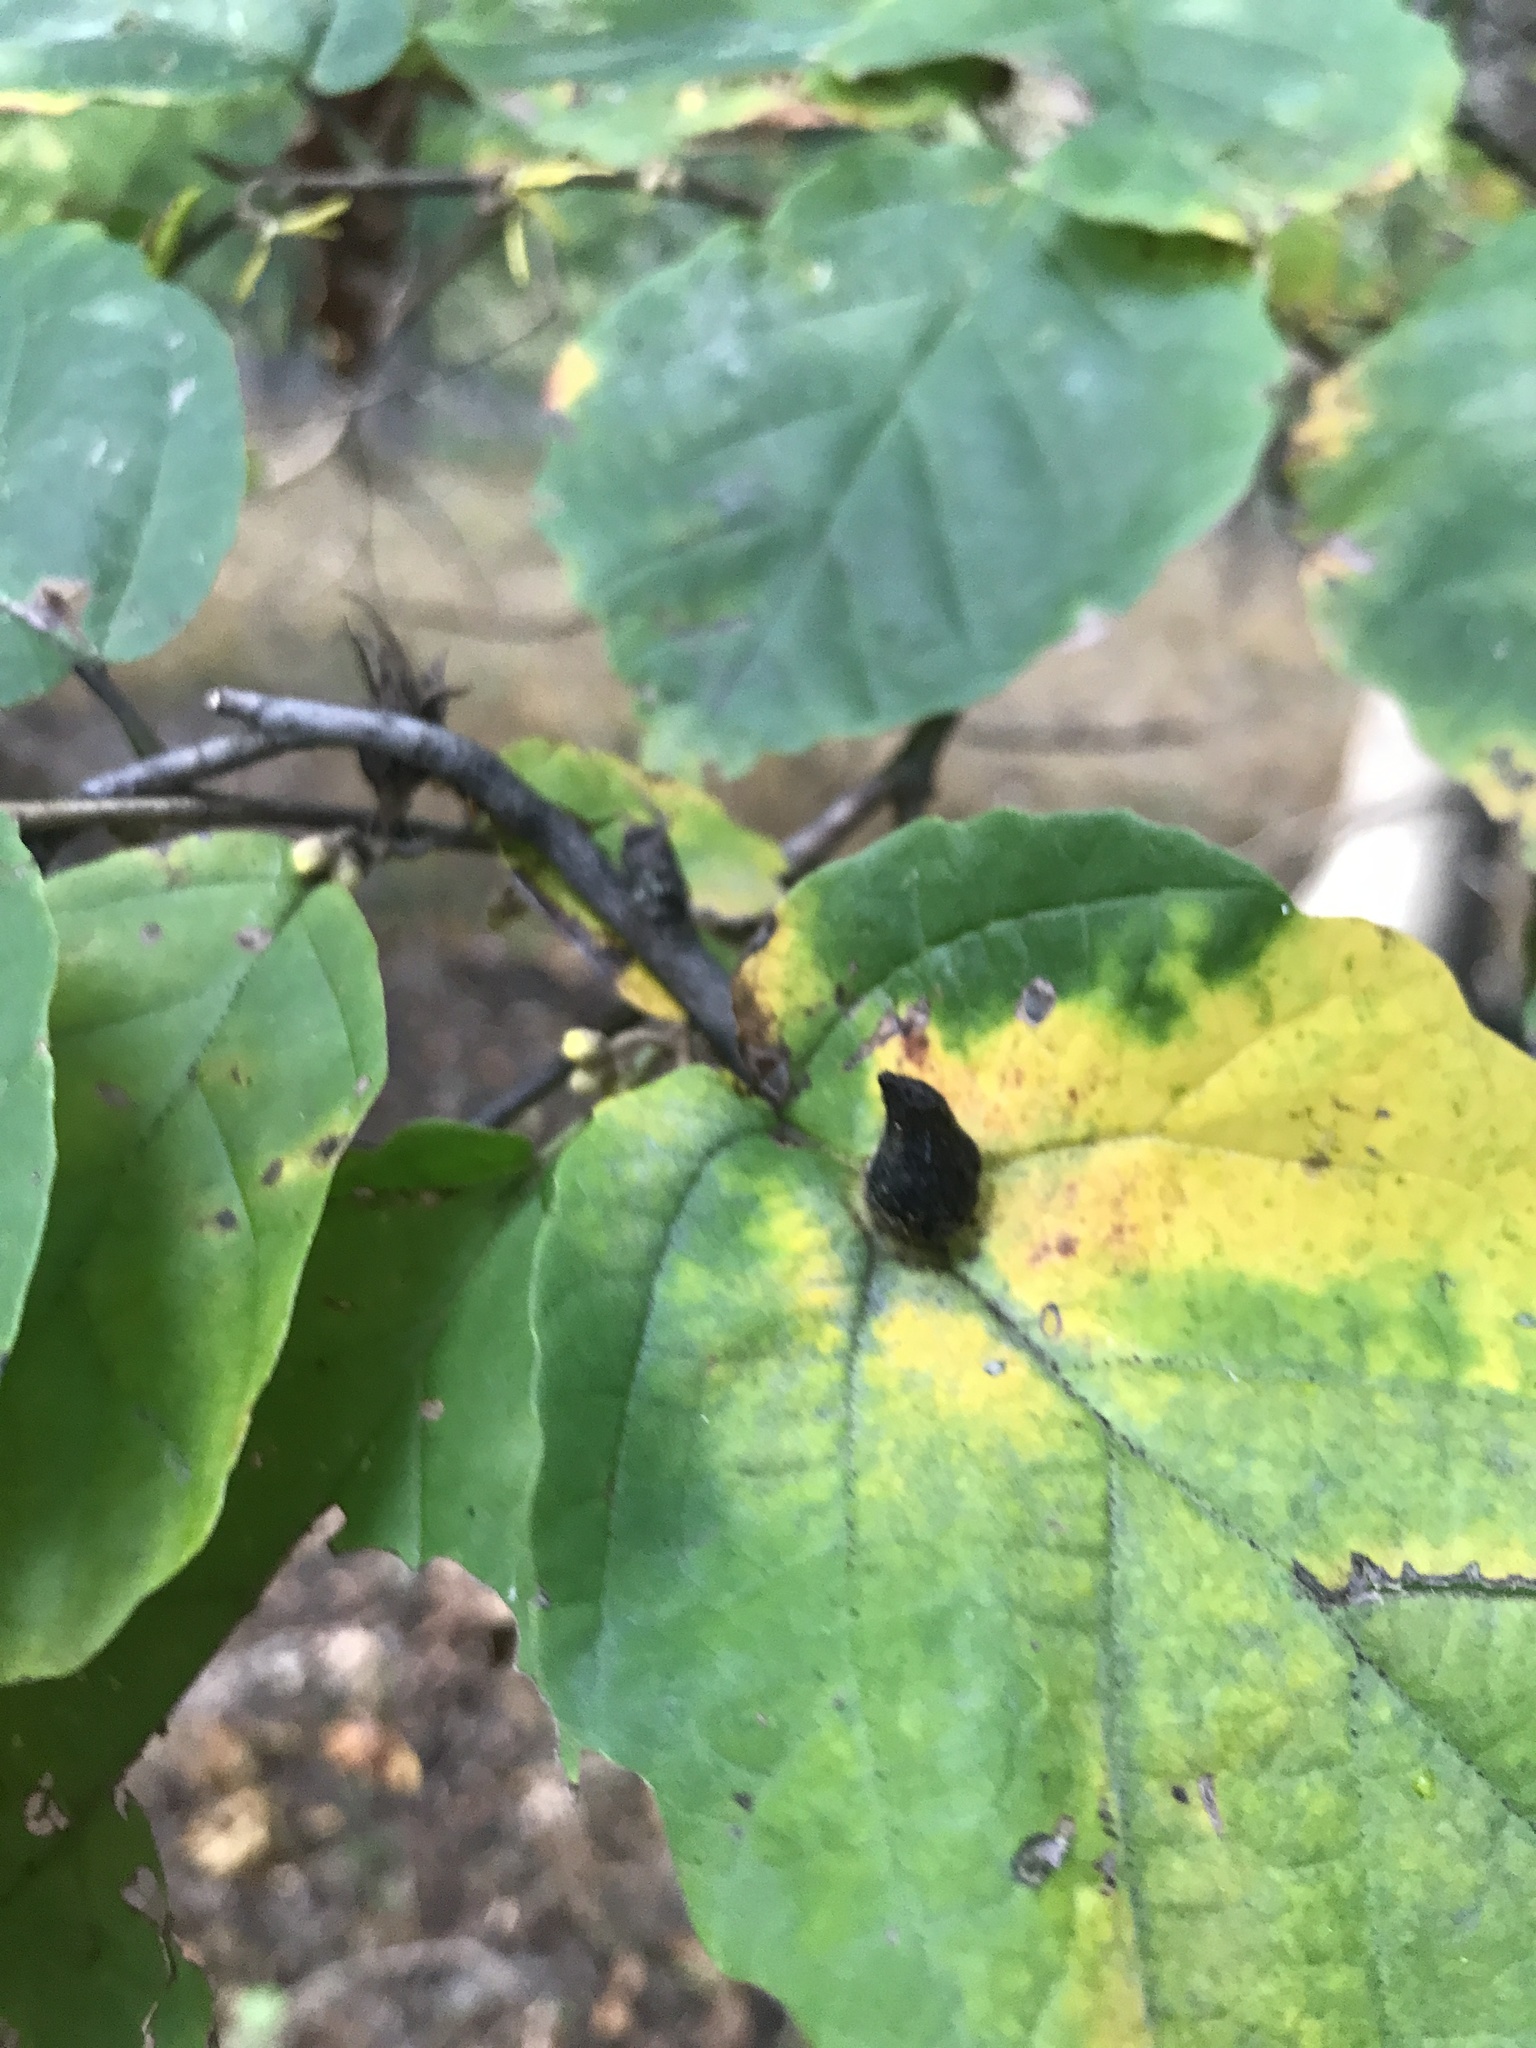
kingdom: Animalia
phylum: Arthropoda
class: Insecta
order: Hemiptera
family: Aphididae
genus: Hormaphis
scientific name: Hormaphis hamamelidis
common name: Witch-hazel cone gall aphid
